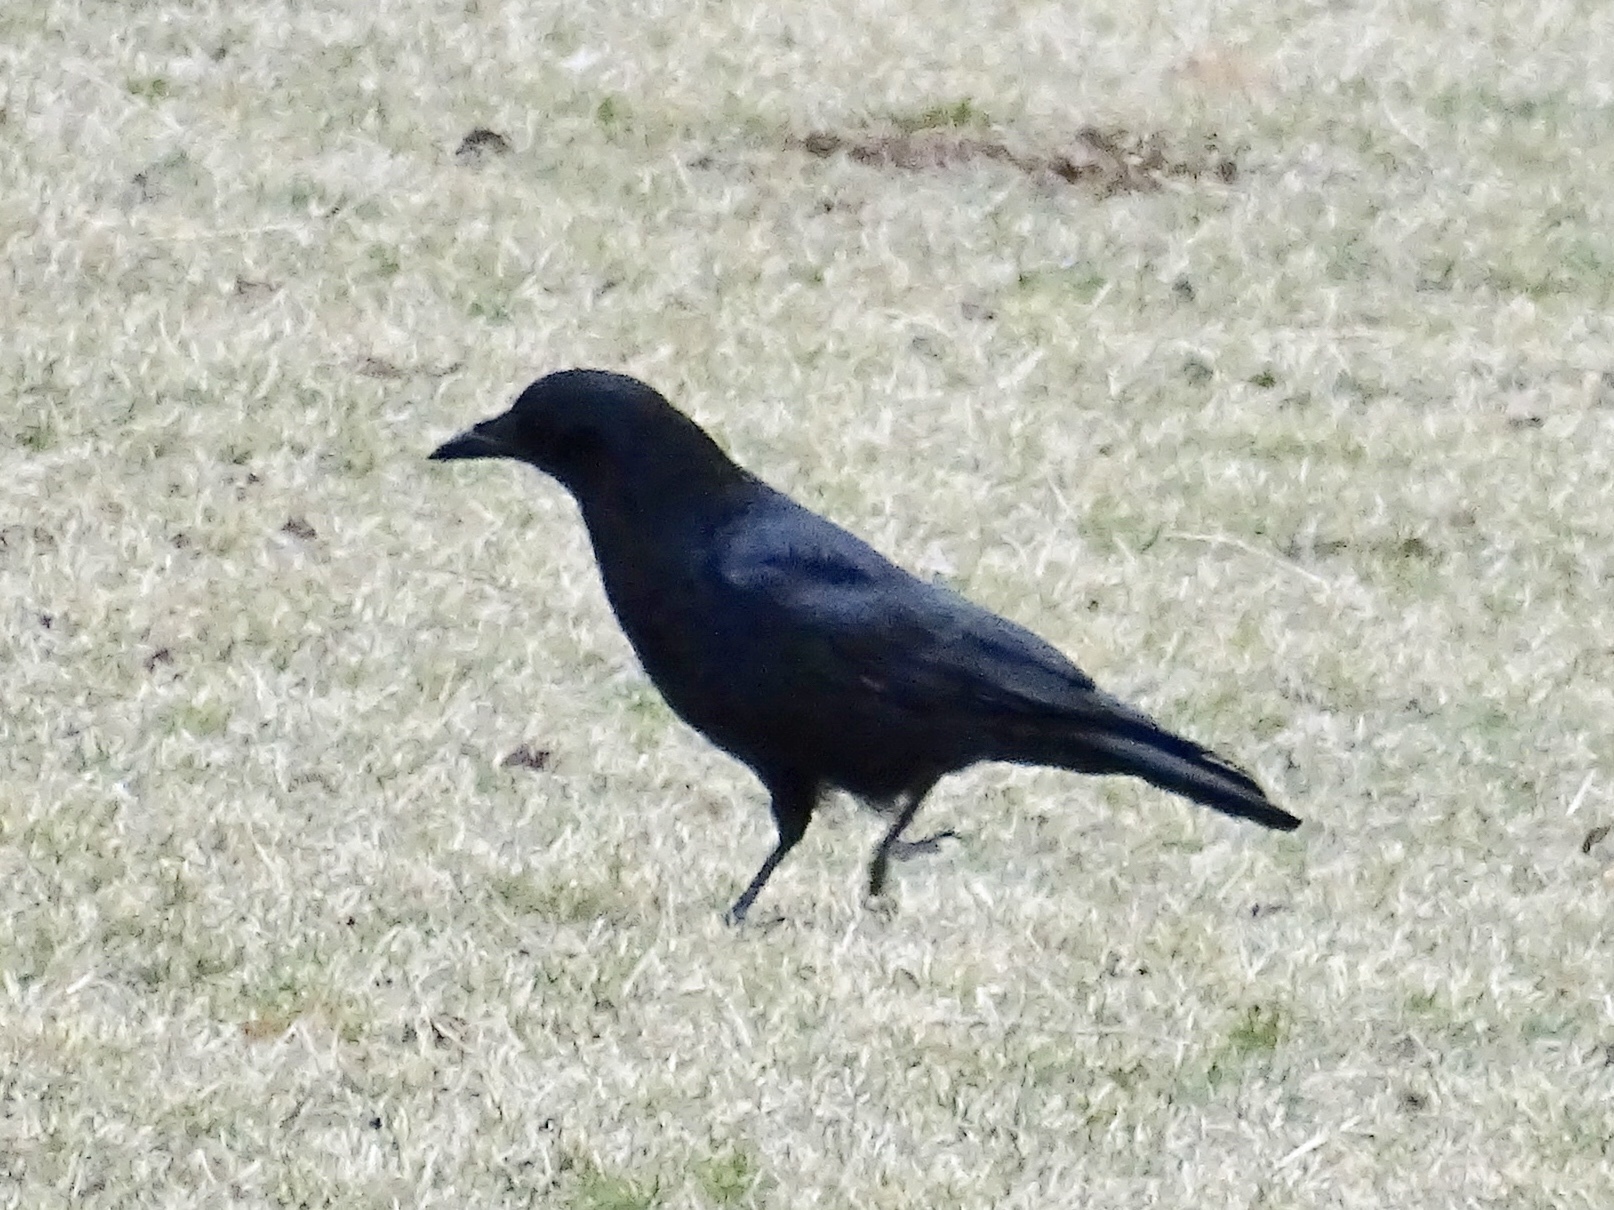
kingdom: Animalia
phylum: Chordata
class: Aves
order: Passeriformes
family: Corvidae
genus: Corvus
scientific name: Corvus brachyrhynchos
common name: American crow
